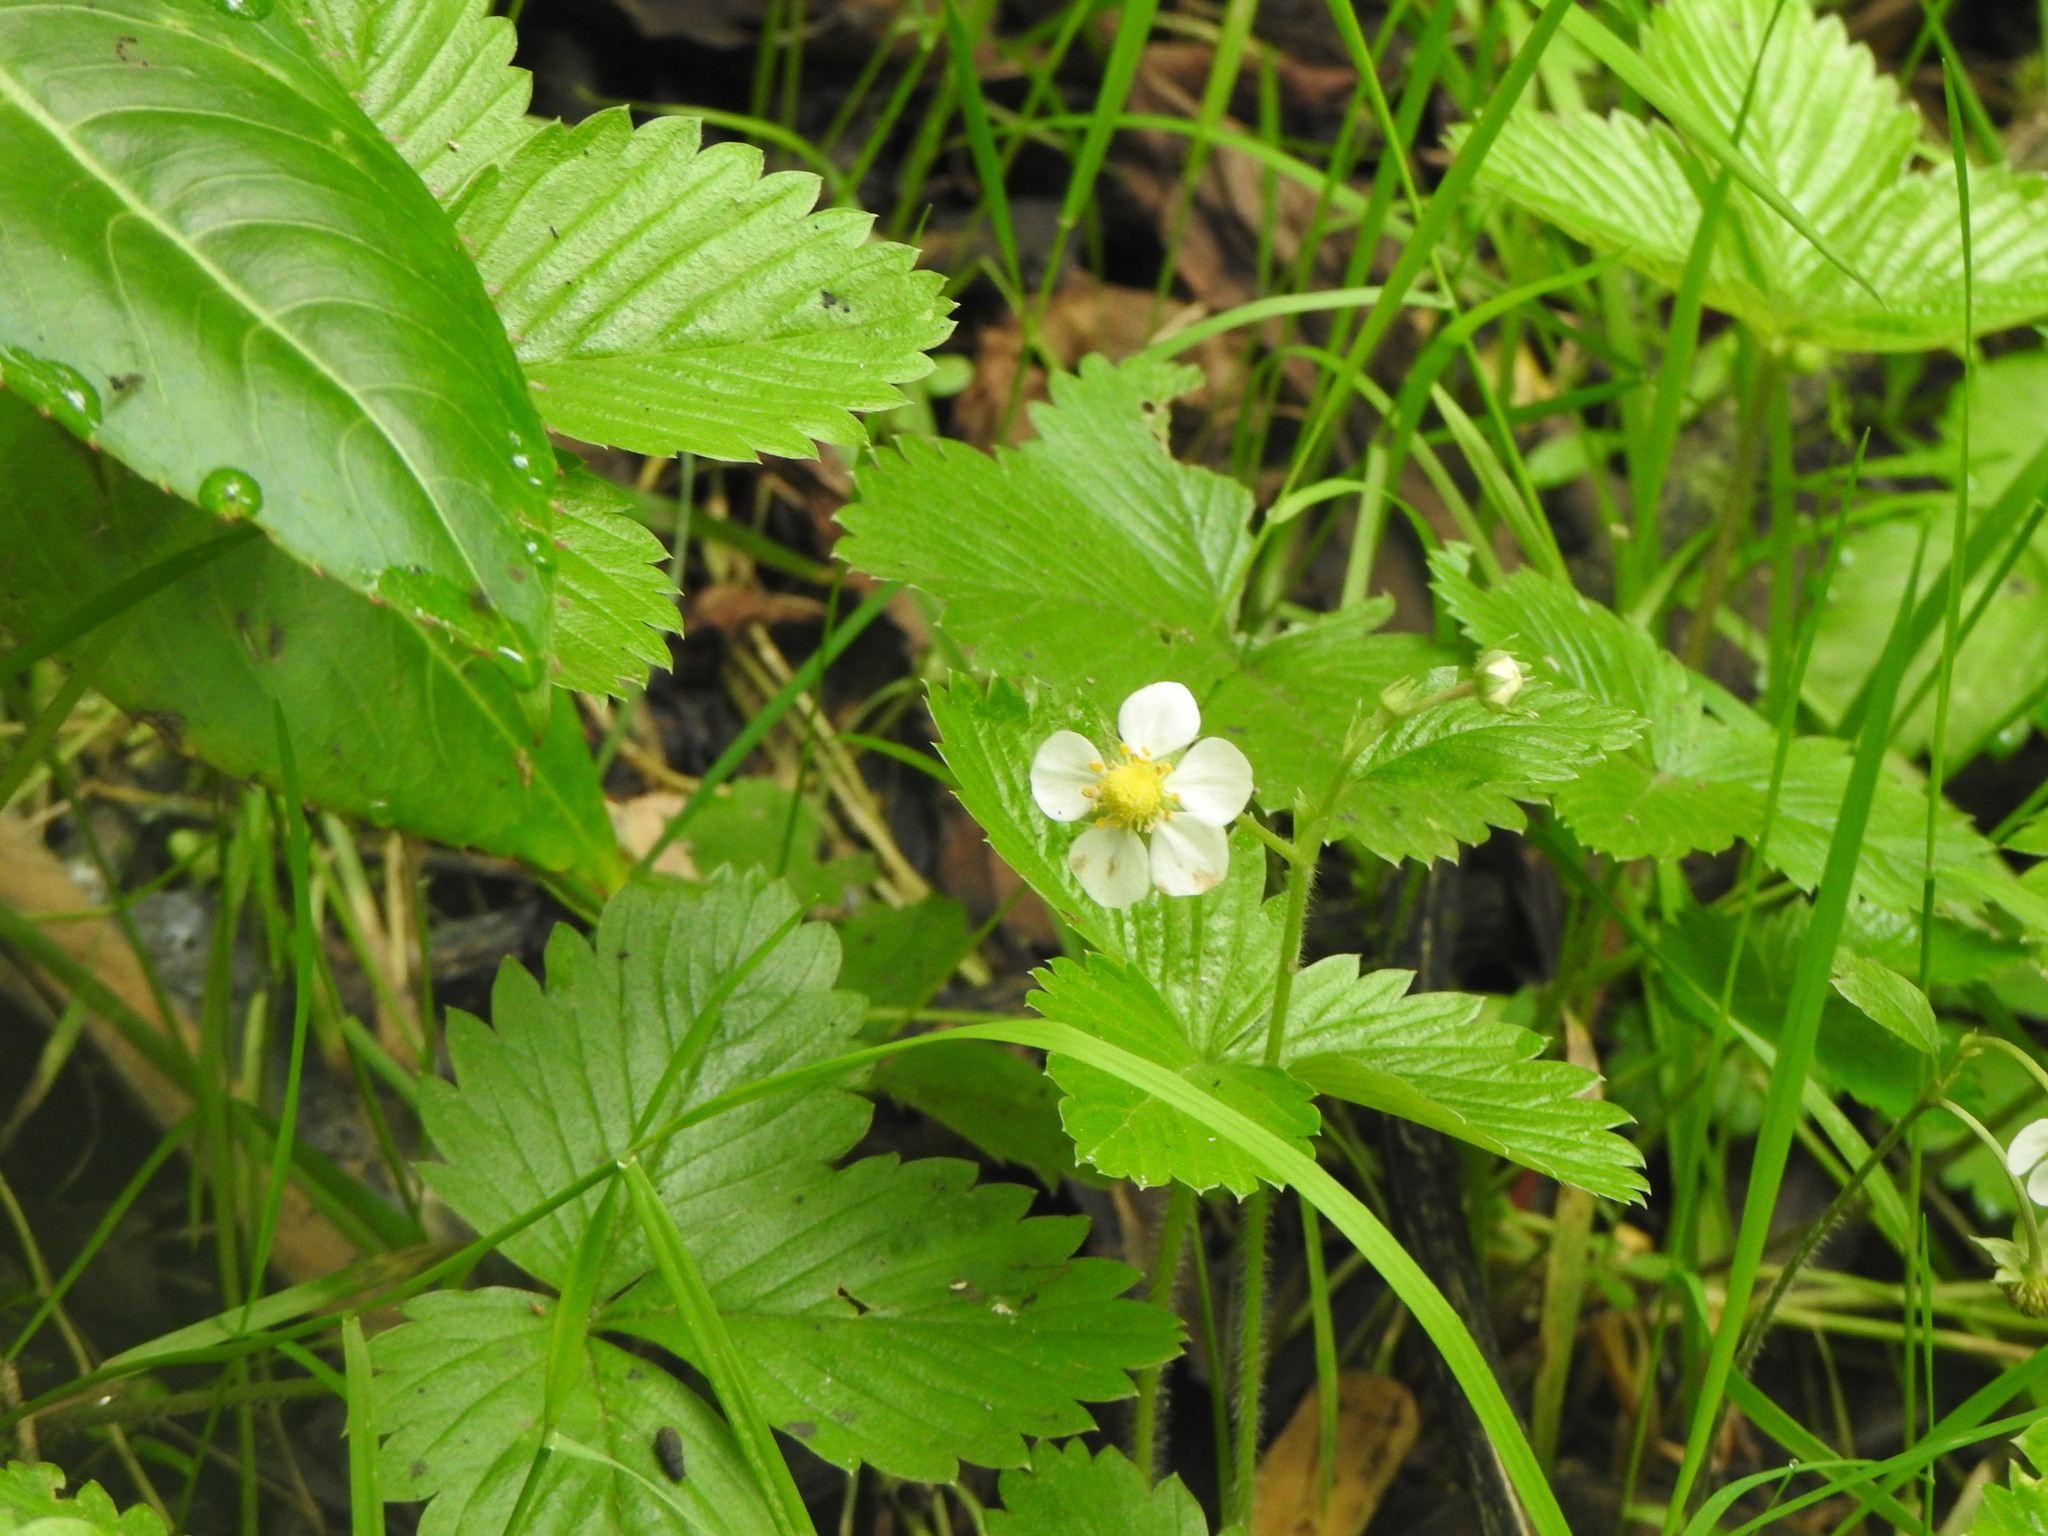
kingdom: Plantae
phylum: Tracheophyta
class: Magnoliopsida
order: Rosales
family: Rosaceae
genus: Fragaria
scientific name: Fragaria vesca
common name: Wild strawberry
